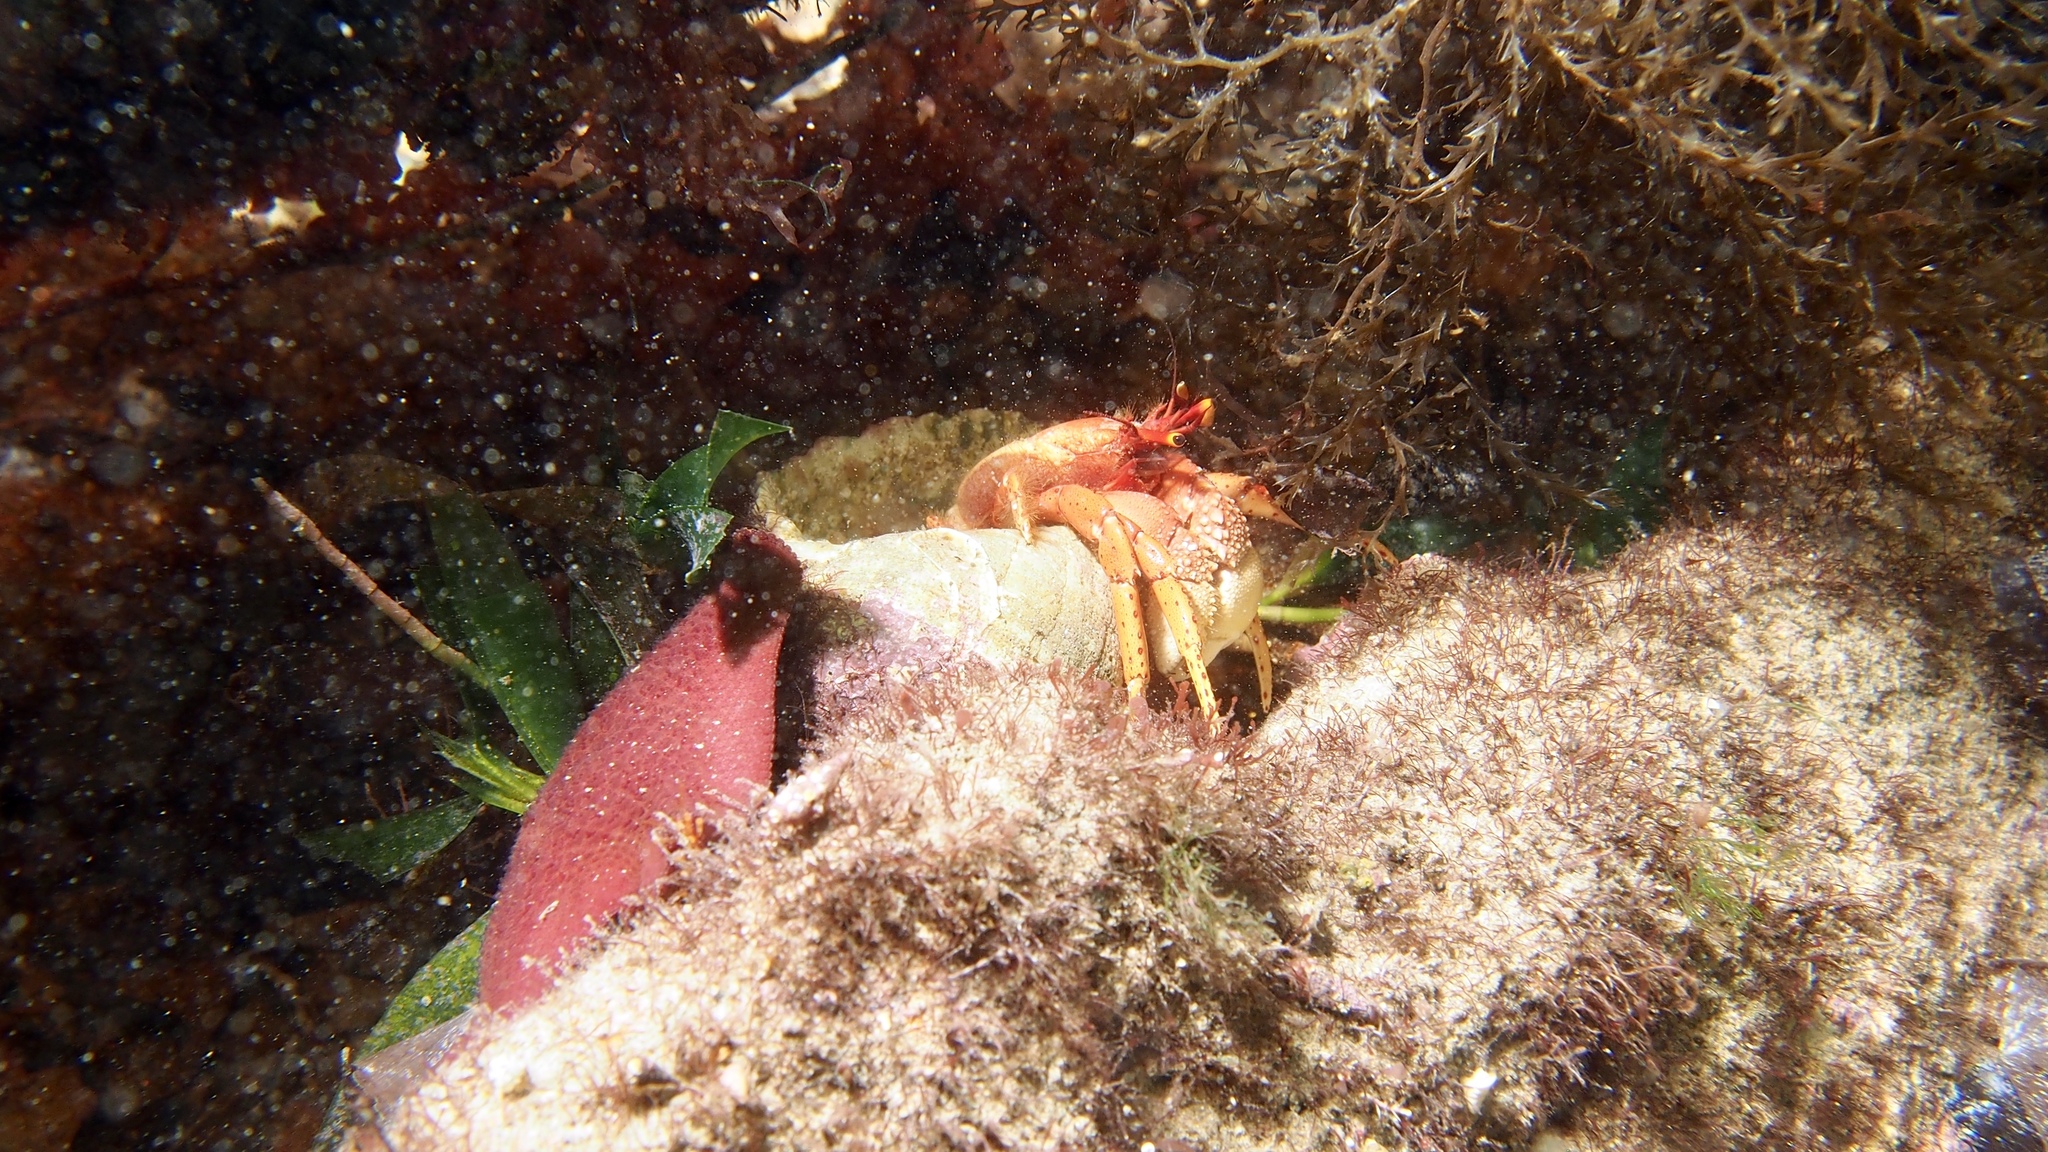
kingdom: Animalia
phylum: Arthropoda
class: Malacostraca
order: Decapoda
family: Diogenidae
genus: Paguristes
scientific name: Paguristes frontalis
